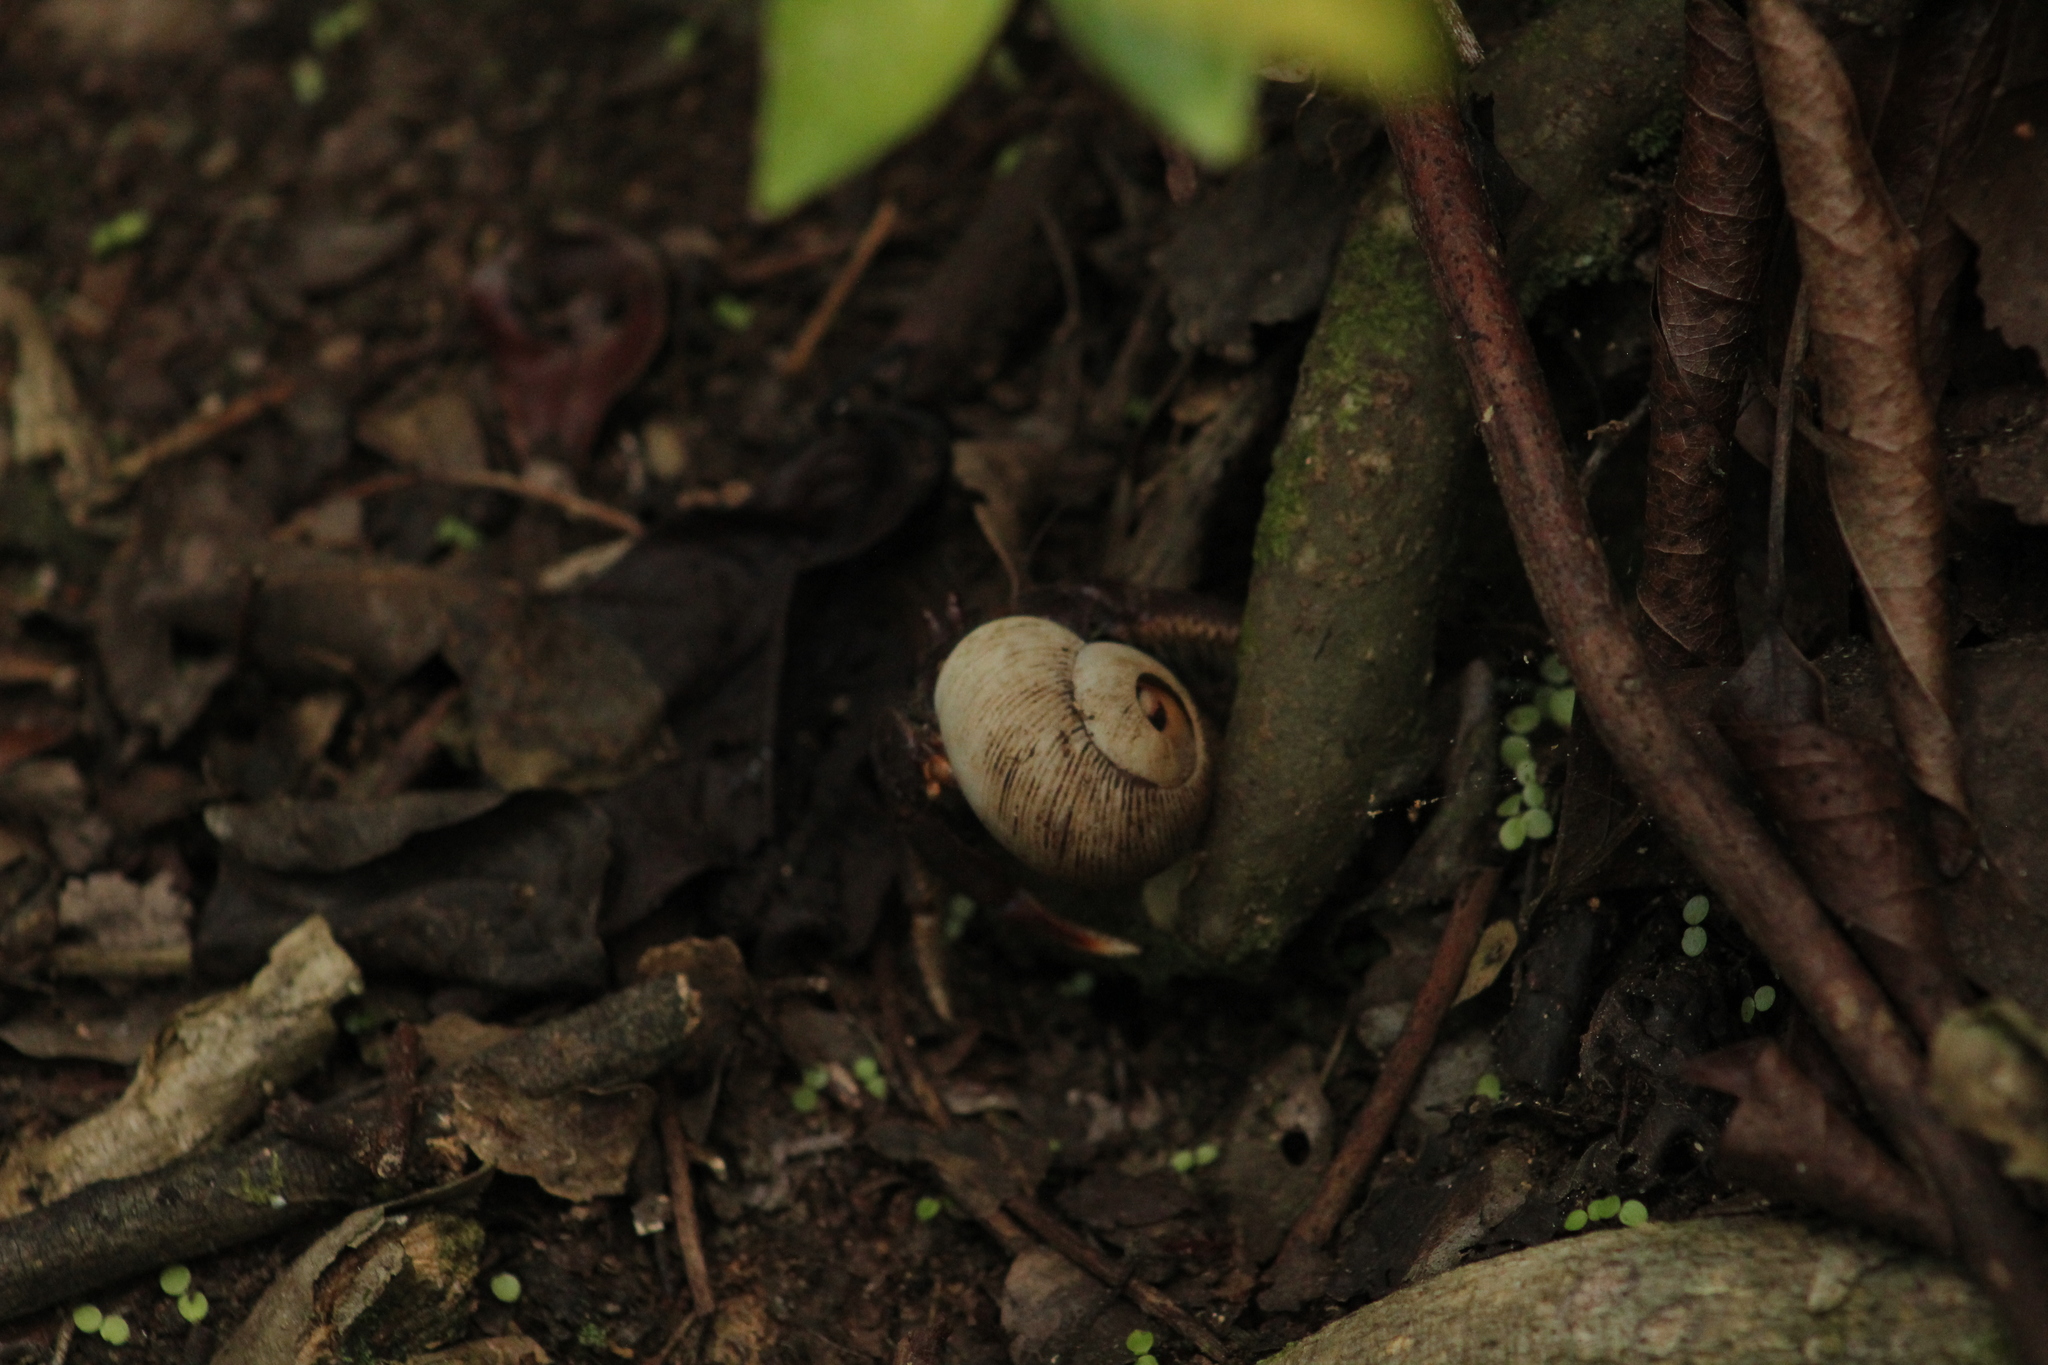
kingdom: Animalia
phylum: Arthropoda
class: Malacostraca
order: Decapoda
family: Coenobitidae
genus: Coenobita
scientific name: Coenobita clypeatus
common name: Caribbean hermit crab
